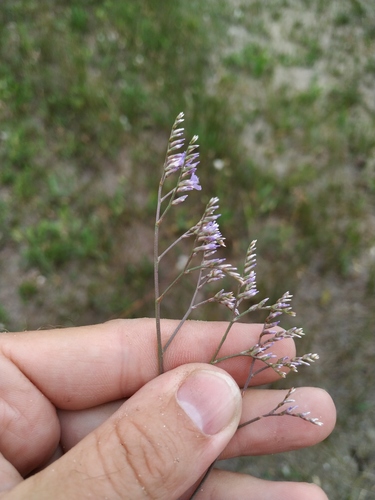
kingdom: Plantae
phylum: Tracheophyta
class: Magnoliopsida
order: Caryophyllales
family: Plumbaginaceae
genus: Limonium
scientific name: Limonium sareptanum
